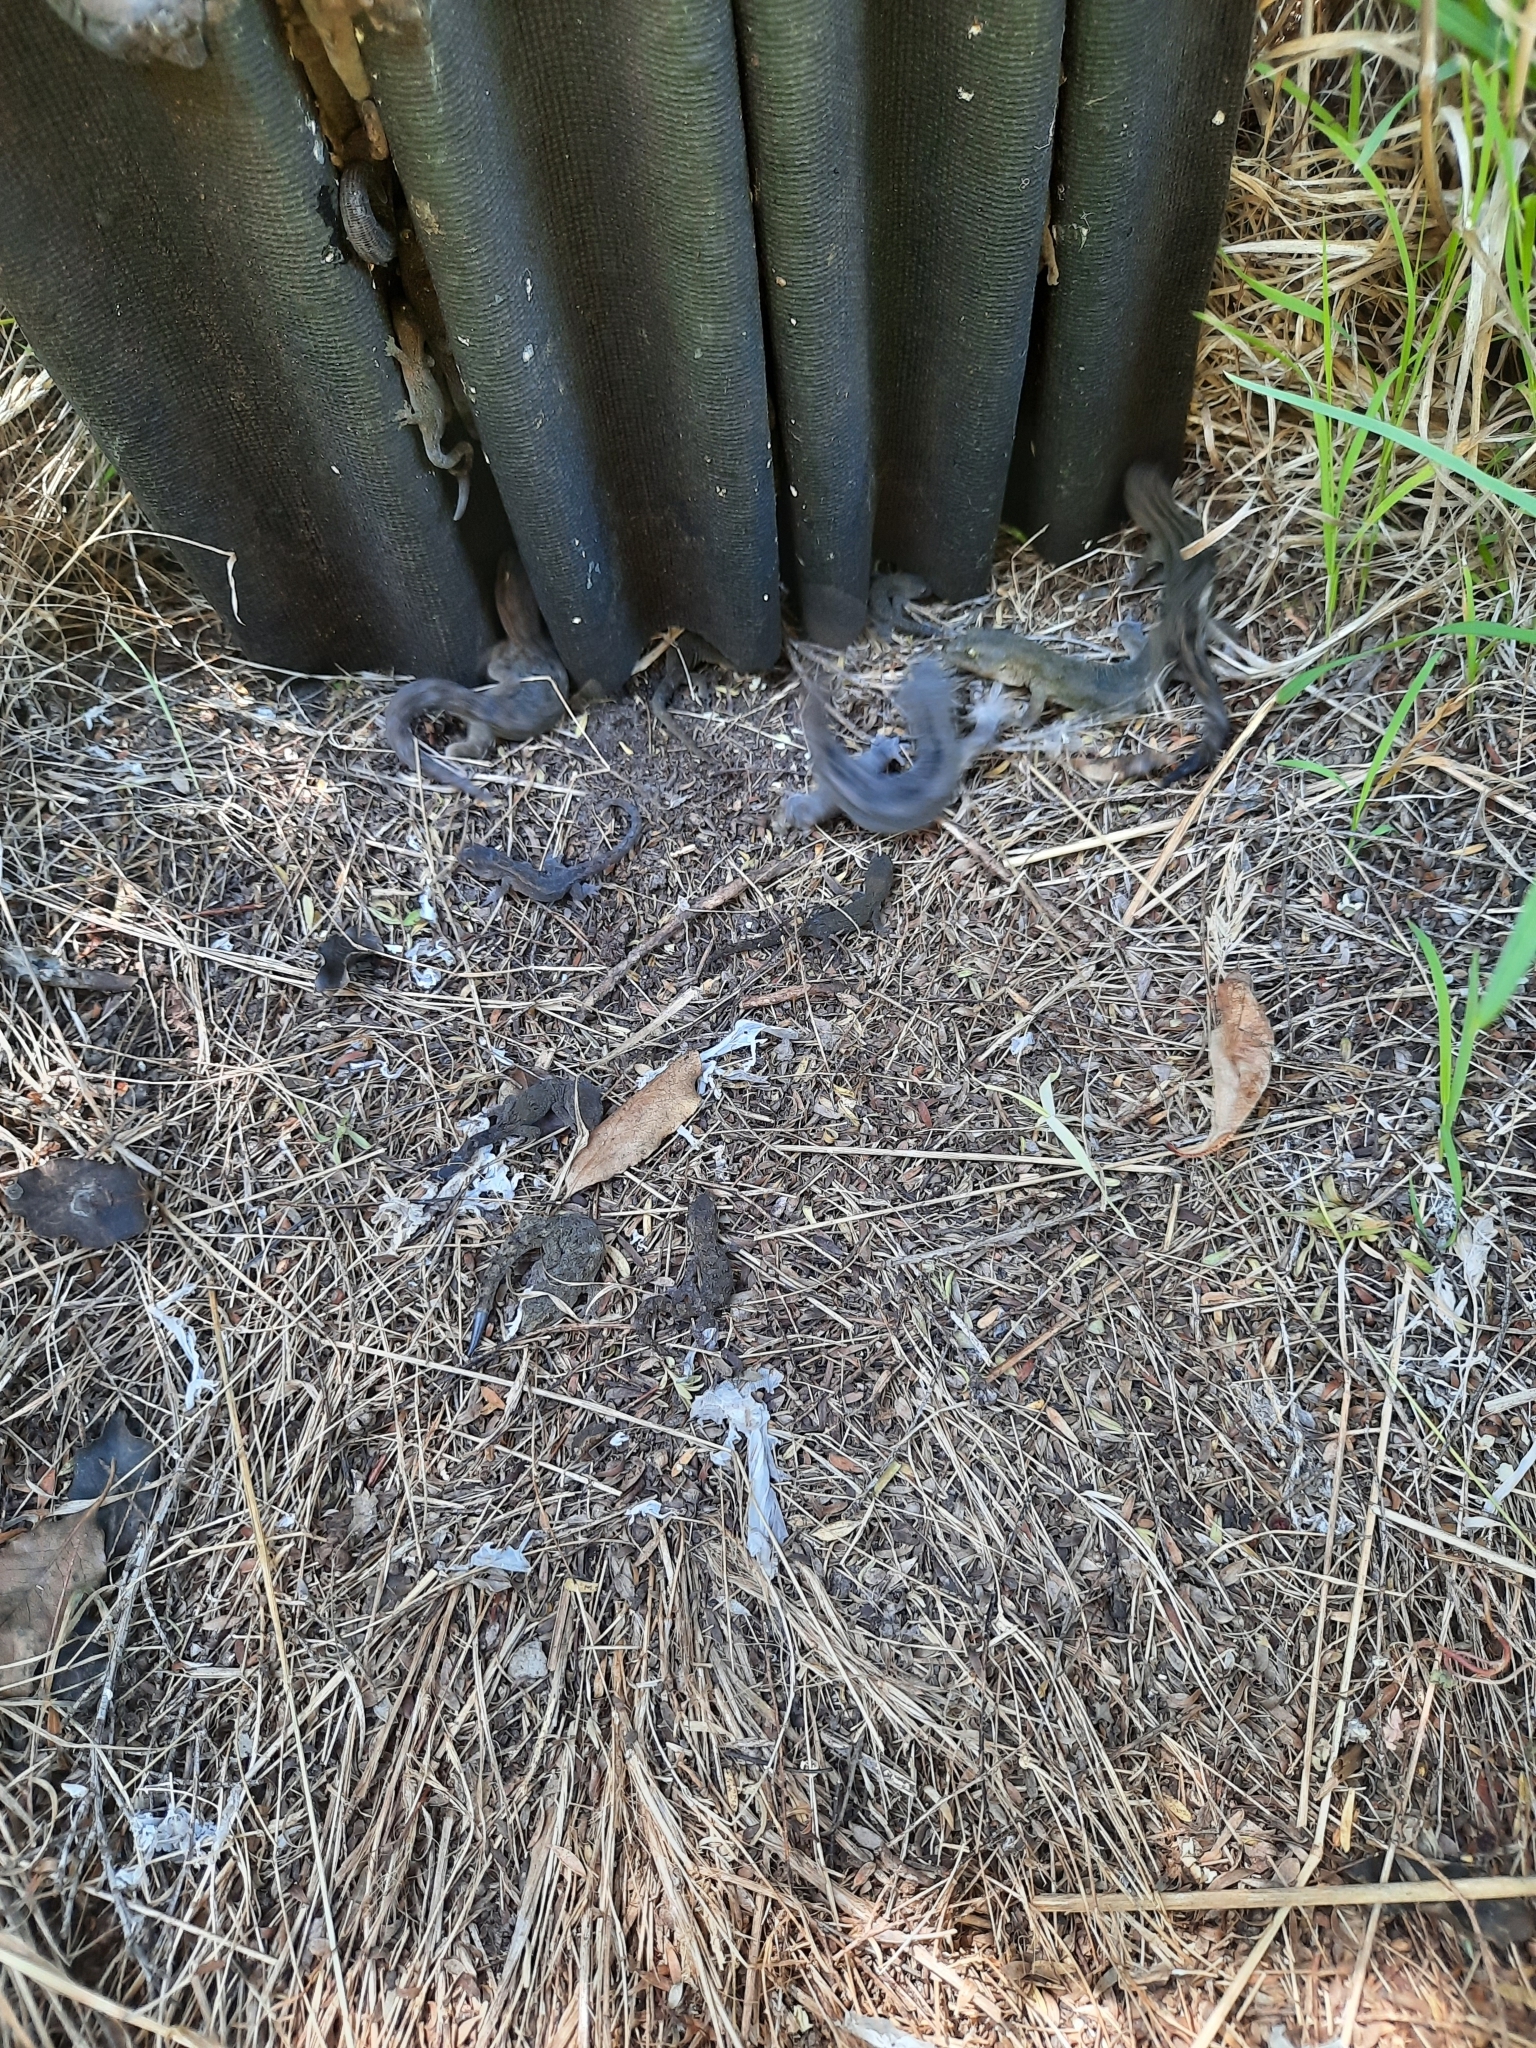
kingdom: Animalia
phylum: Chordata
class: Squamata
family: Diplodactylidae
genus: Woodworthia
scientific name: Woodworthia maculata
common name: Raukawa gecko
